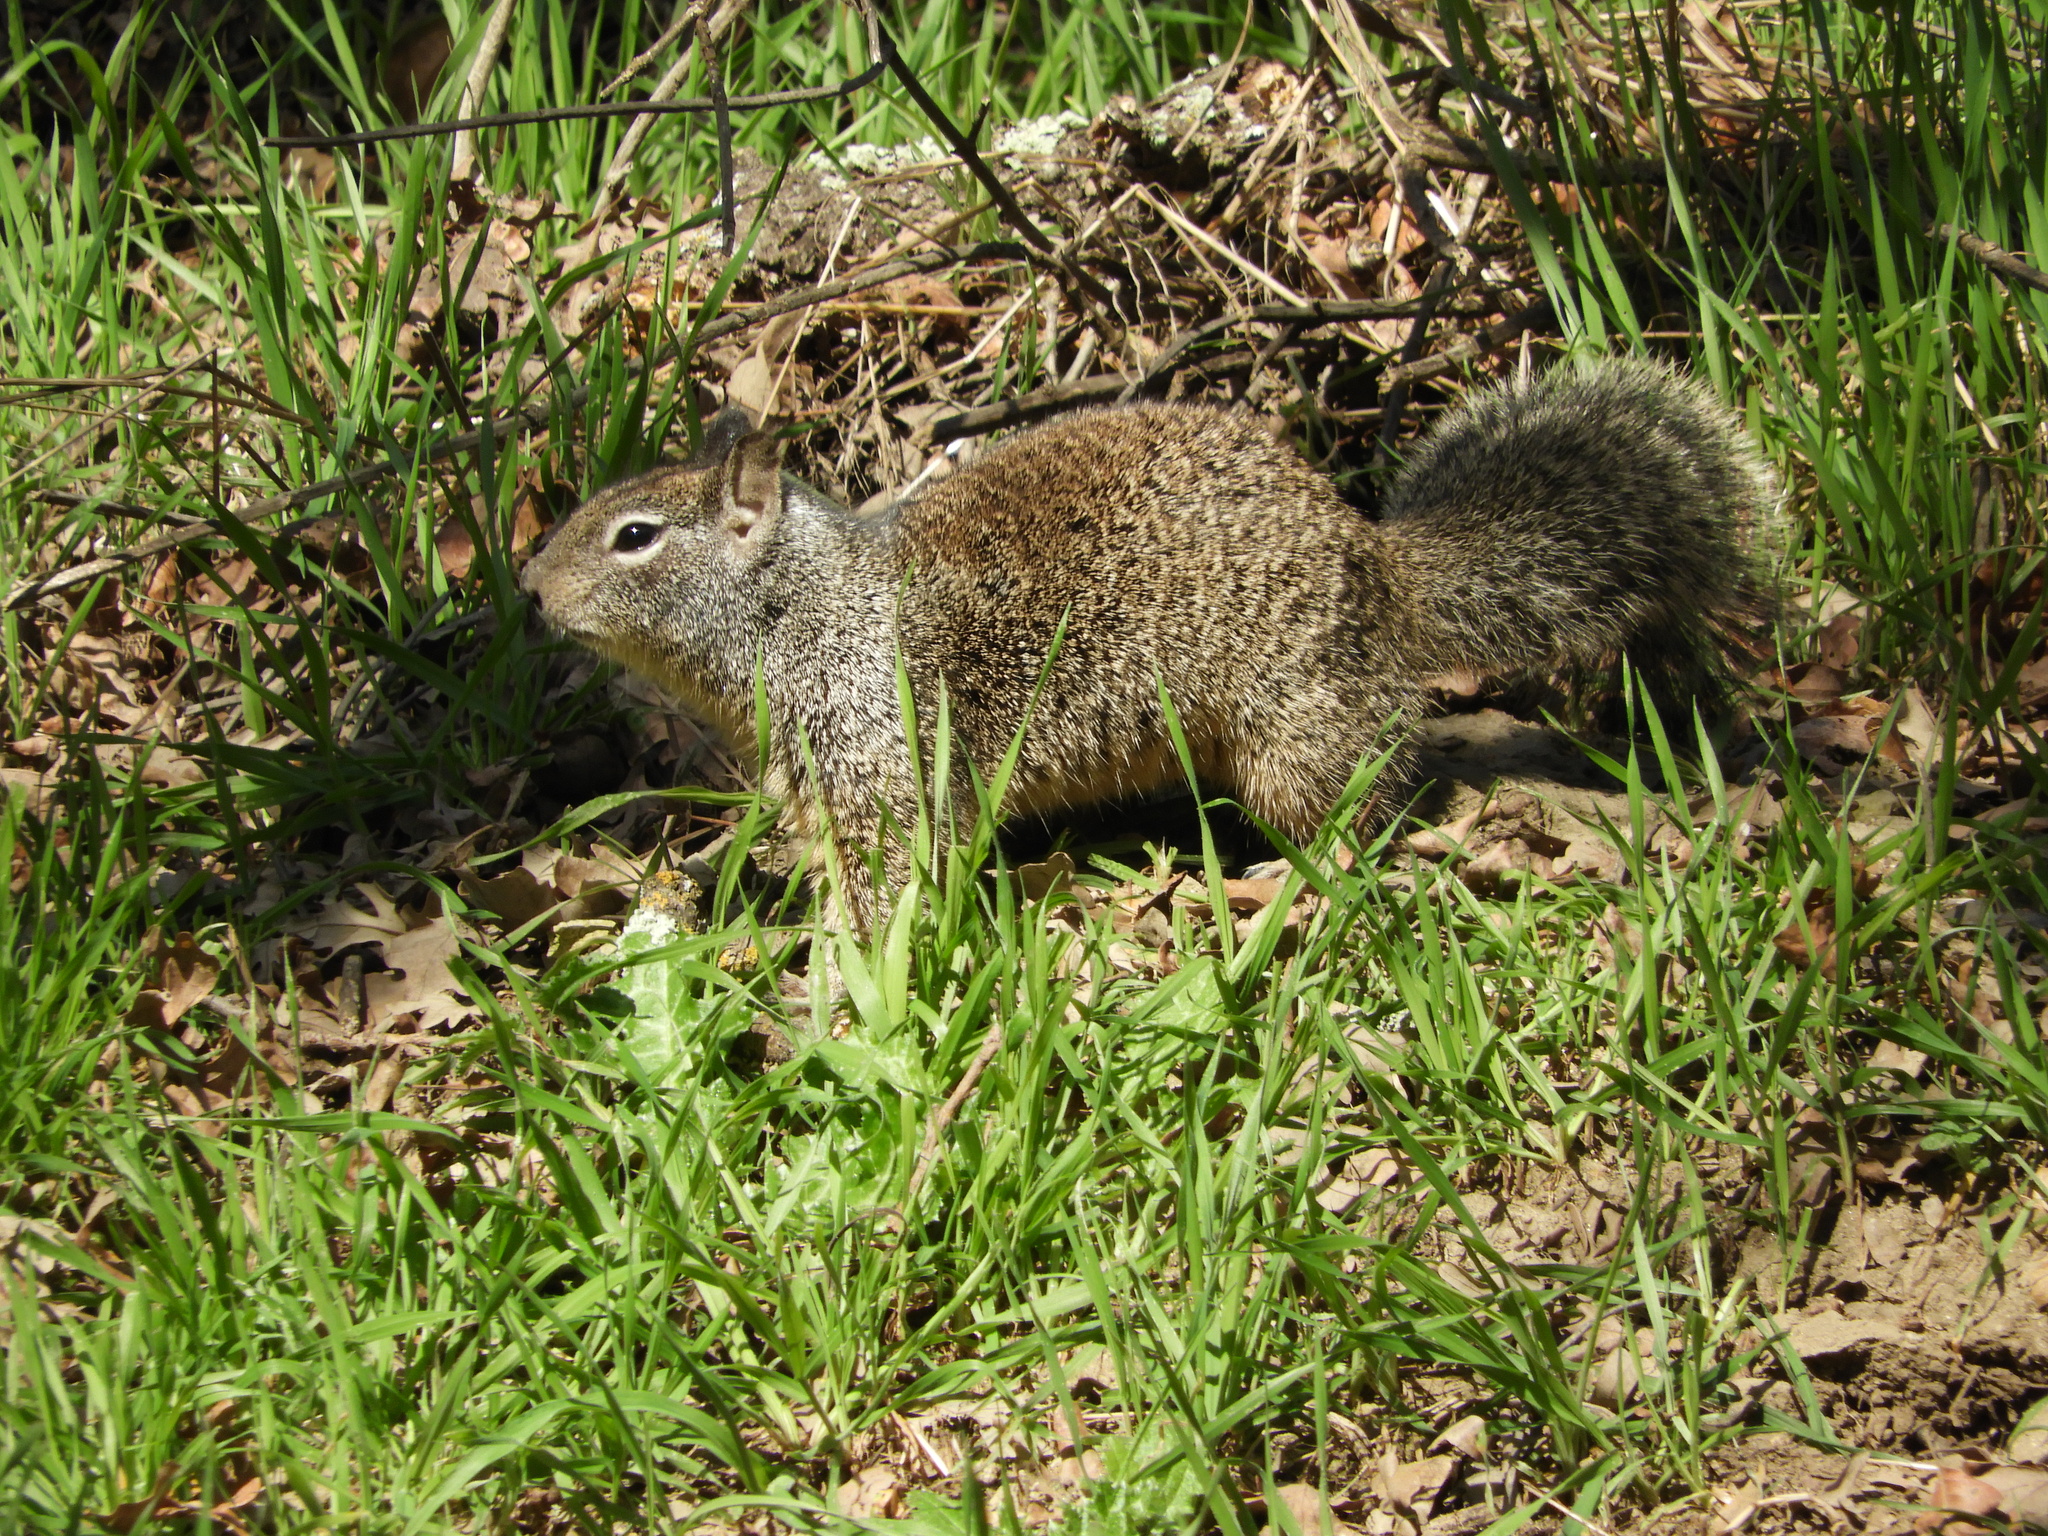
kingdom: Animalia
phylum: Chordata
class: Mammalia
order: Rodentia
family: Sciuridae
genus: Otospermophilus
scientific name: Otospermophilus beecheyi
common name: California ground squirrel
